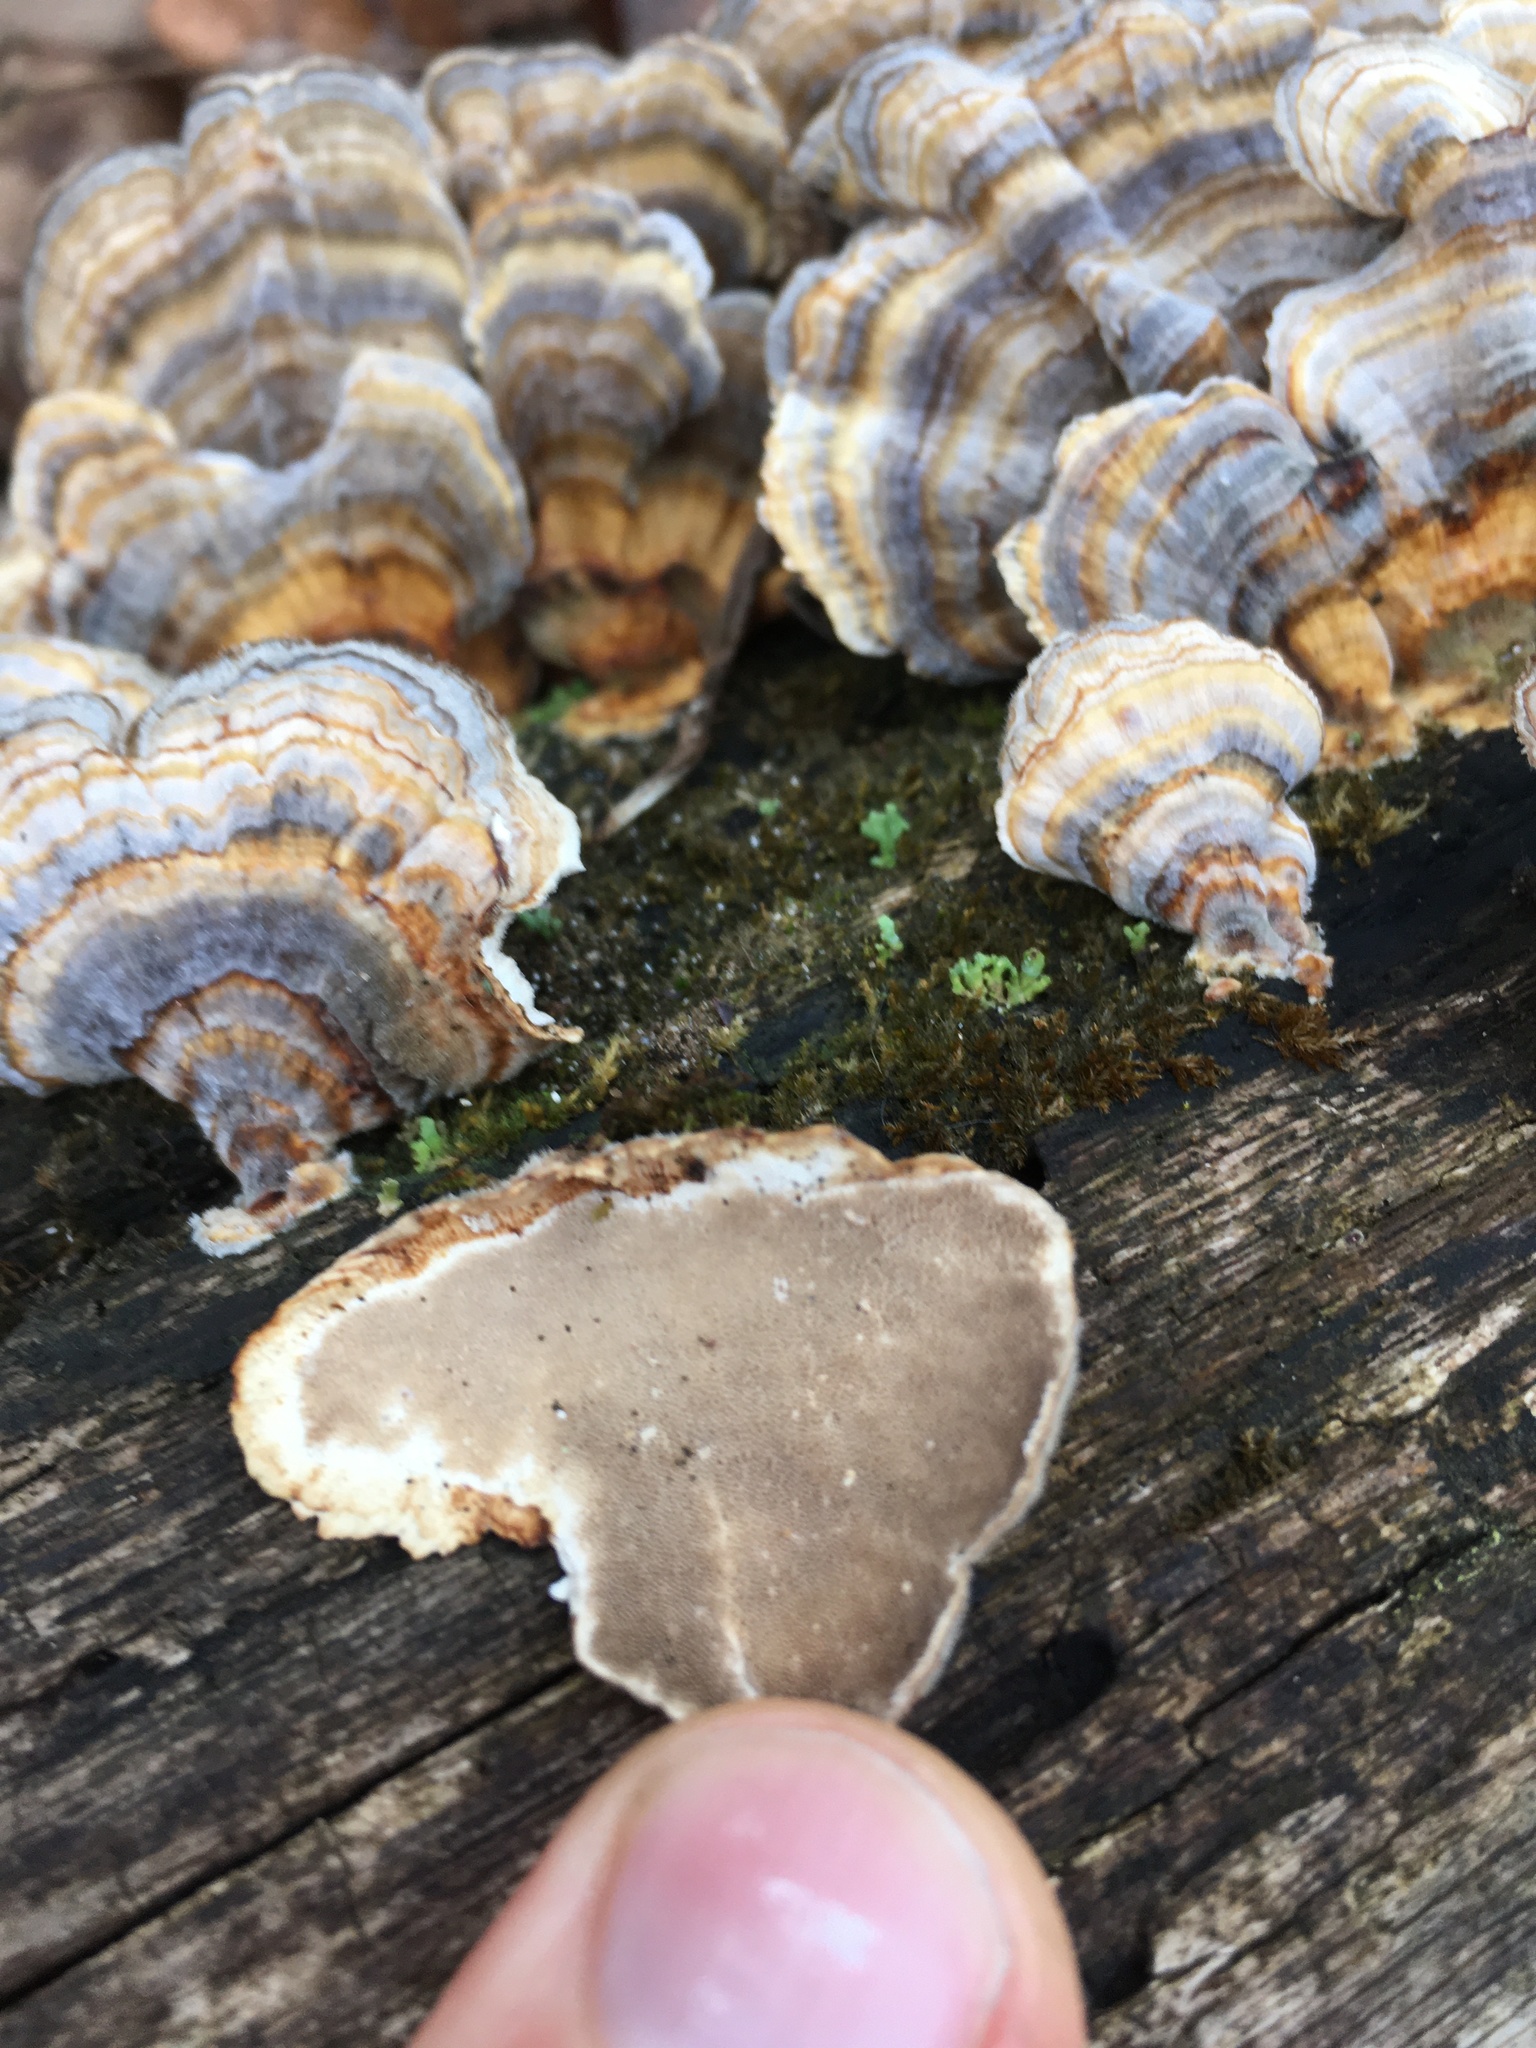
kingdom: Fungi
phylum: Basidiomycota
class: Agaricomycetes
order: Polyporales
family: Polyporaceae
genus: Trametes
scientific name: Trametes versicolor
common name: Turkeytail
